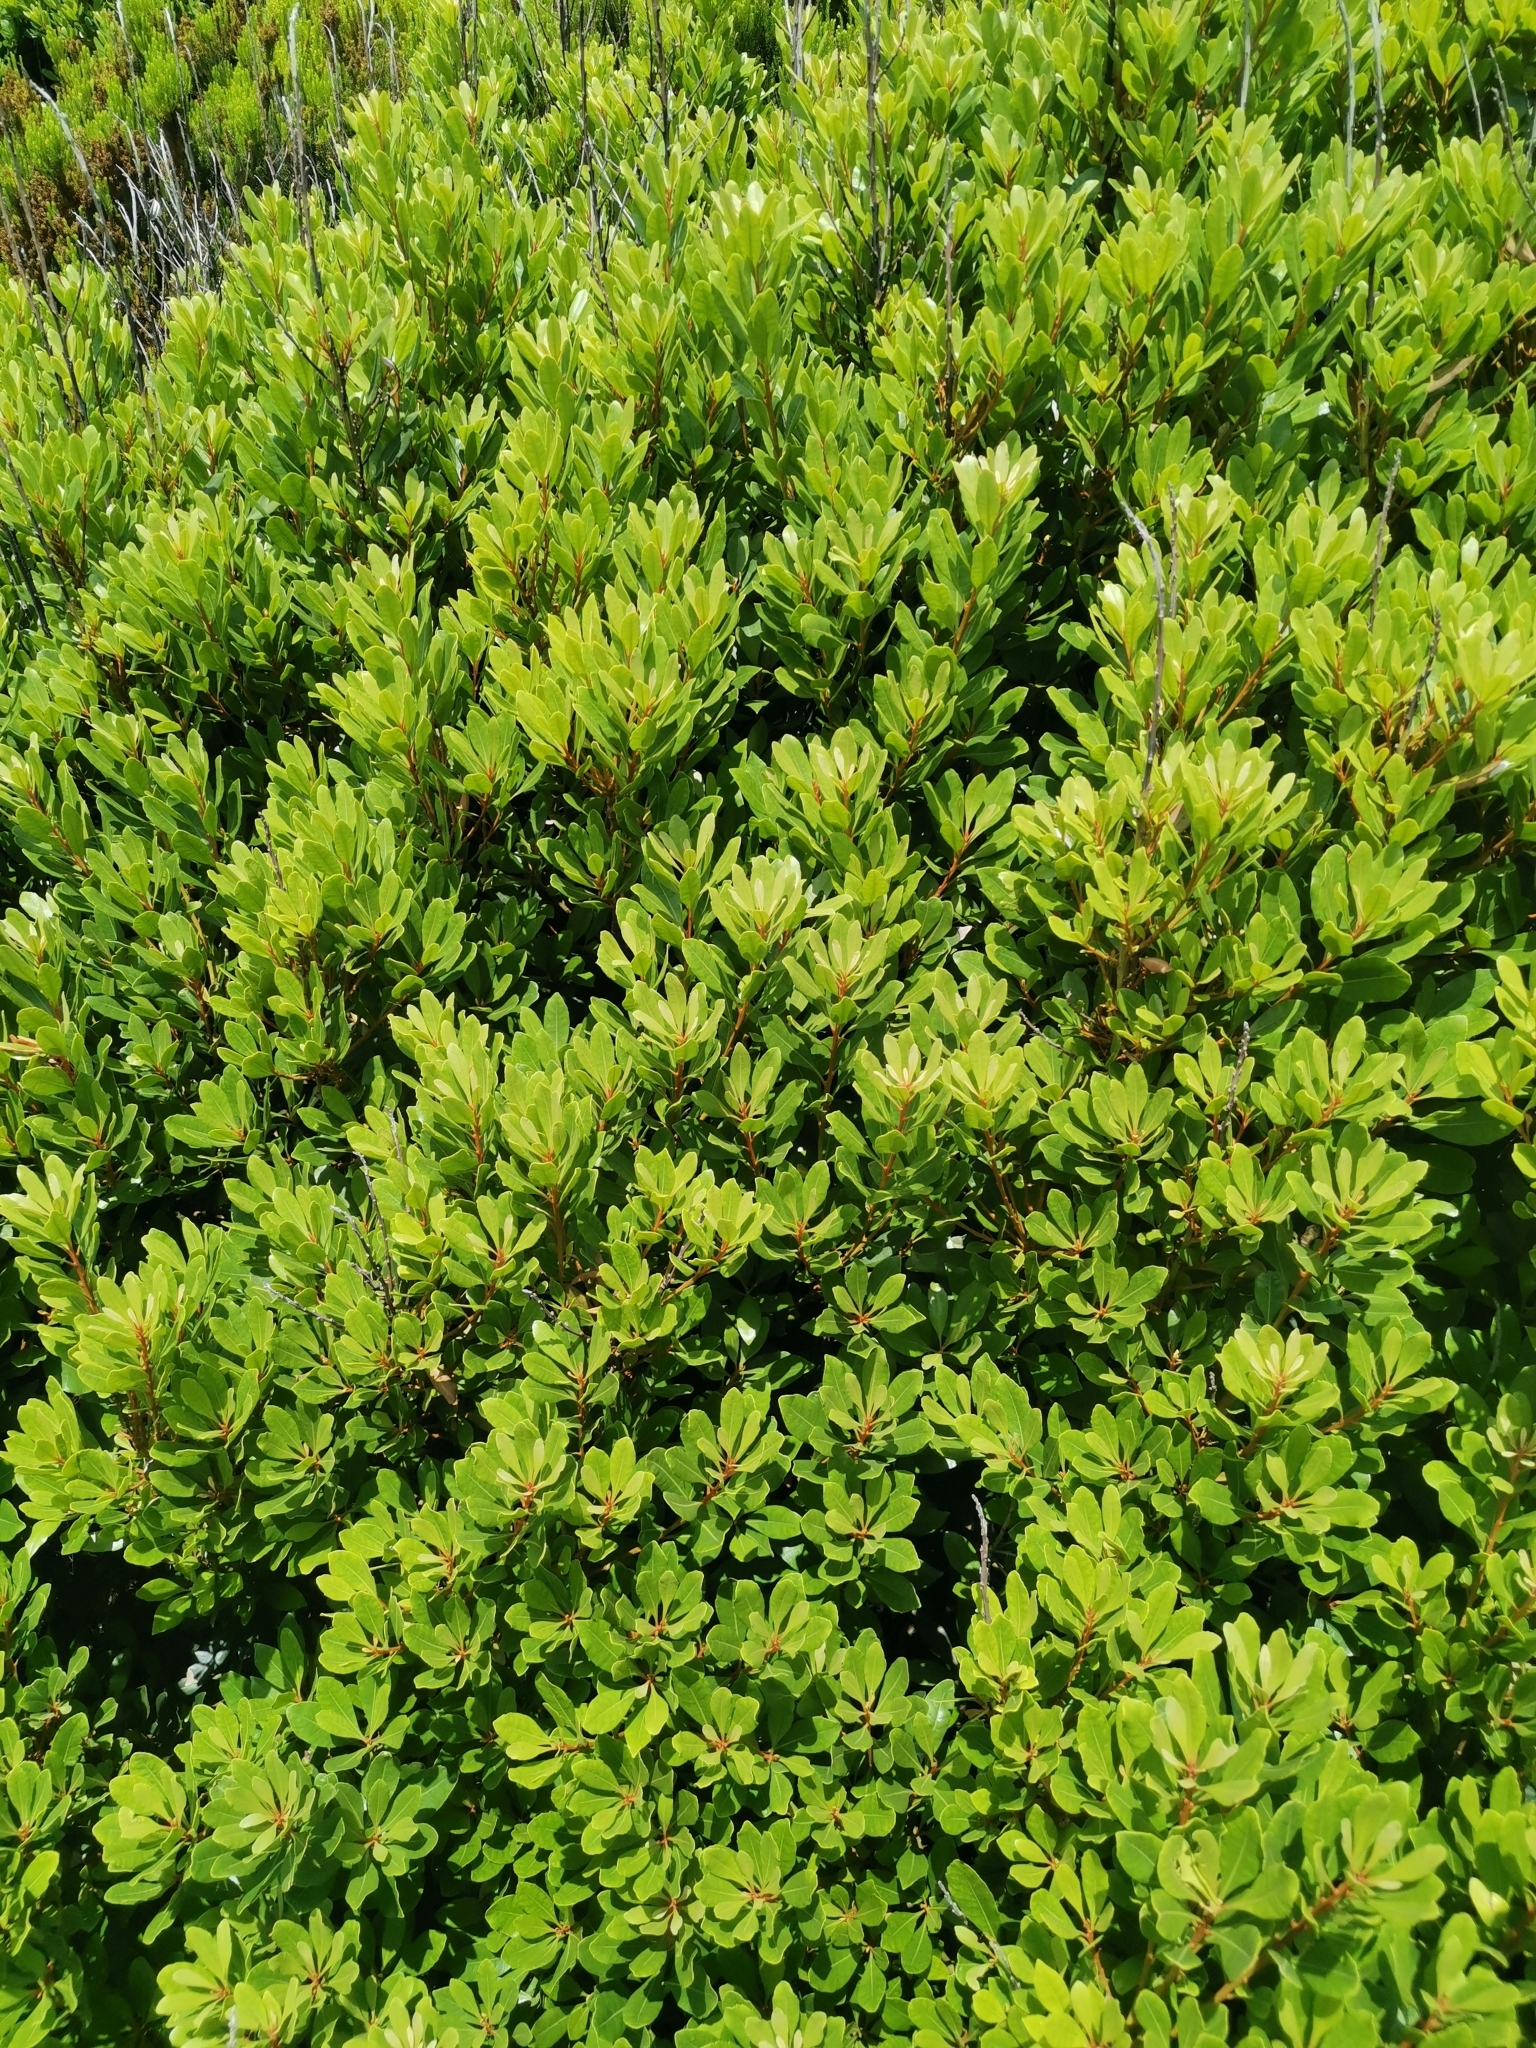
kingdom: Plantae
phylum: Tracheophyta
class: Magnoliopsida
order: Fagales
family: Myricaceae
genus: Morella
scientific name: Morella faya
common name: Firetree
